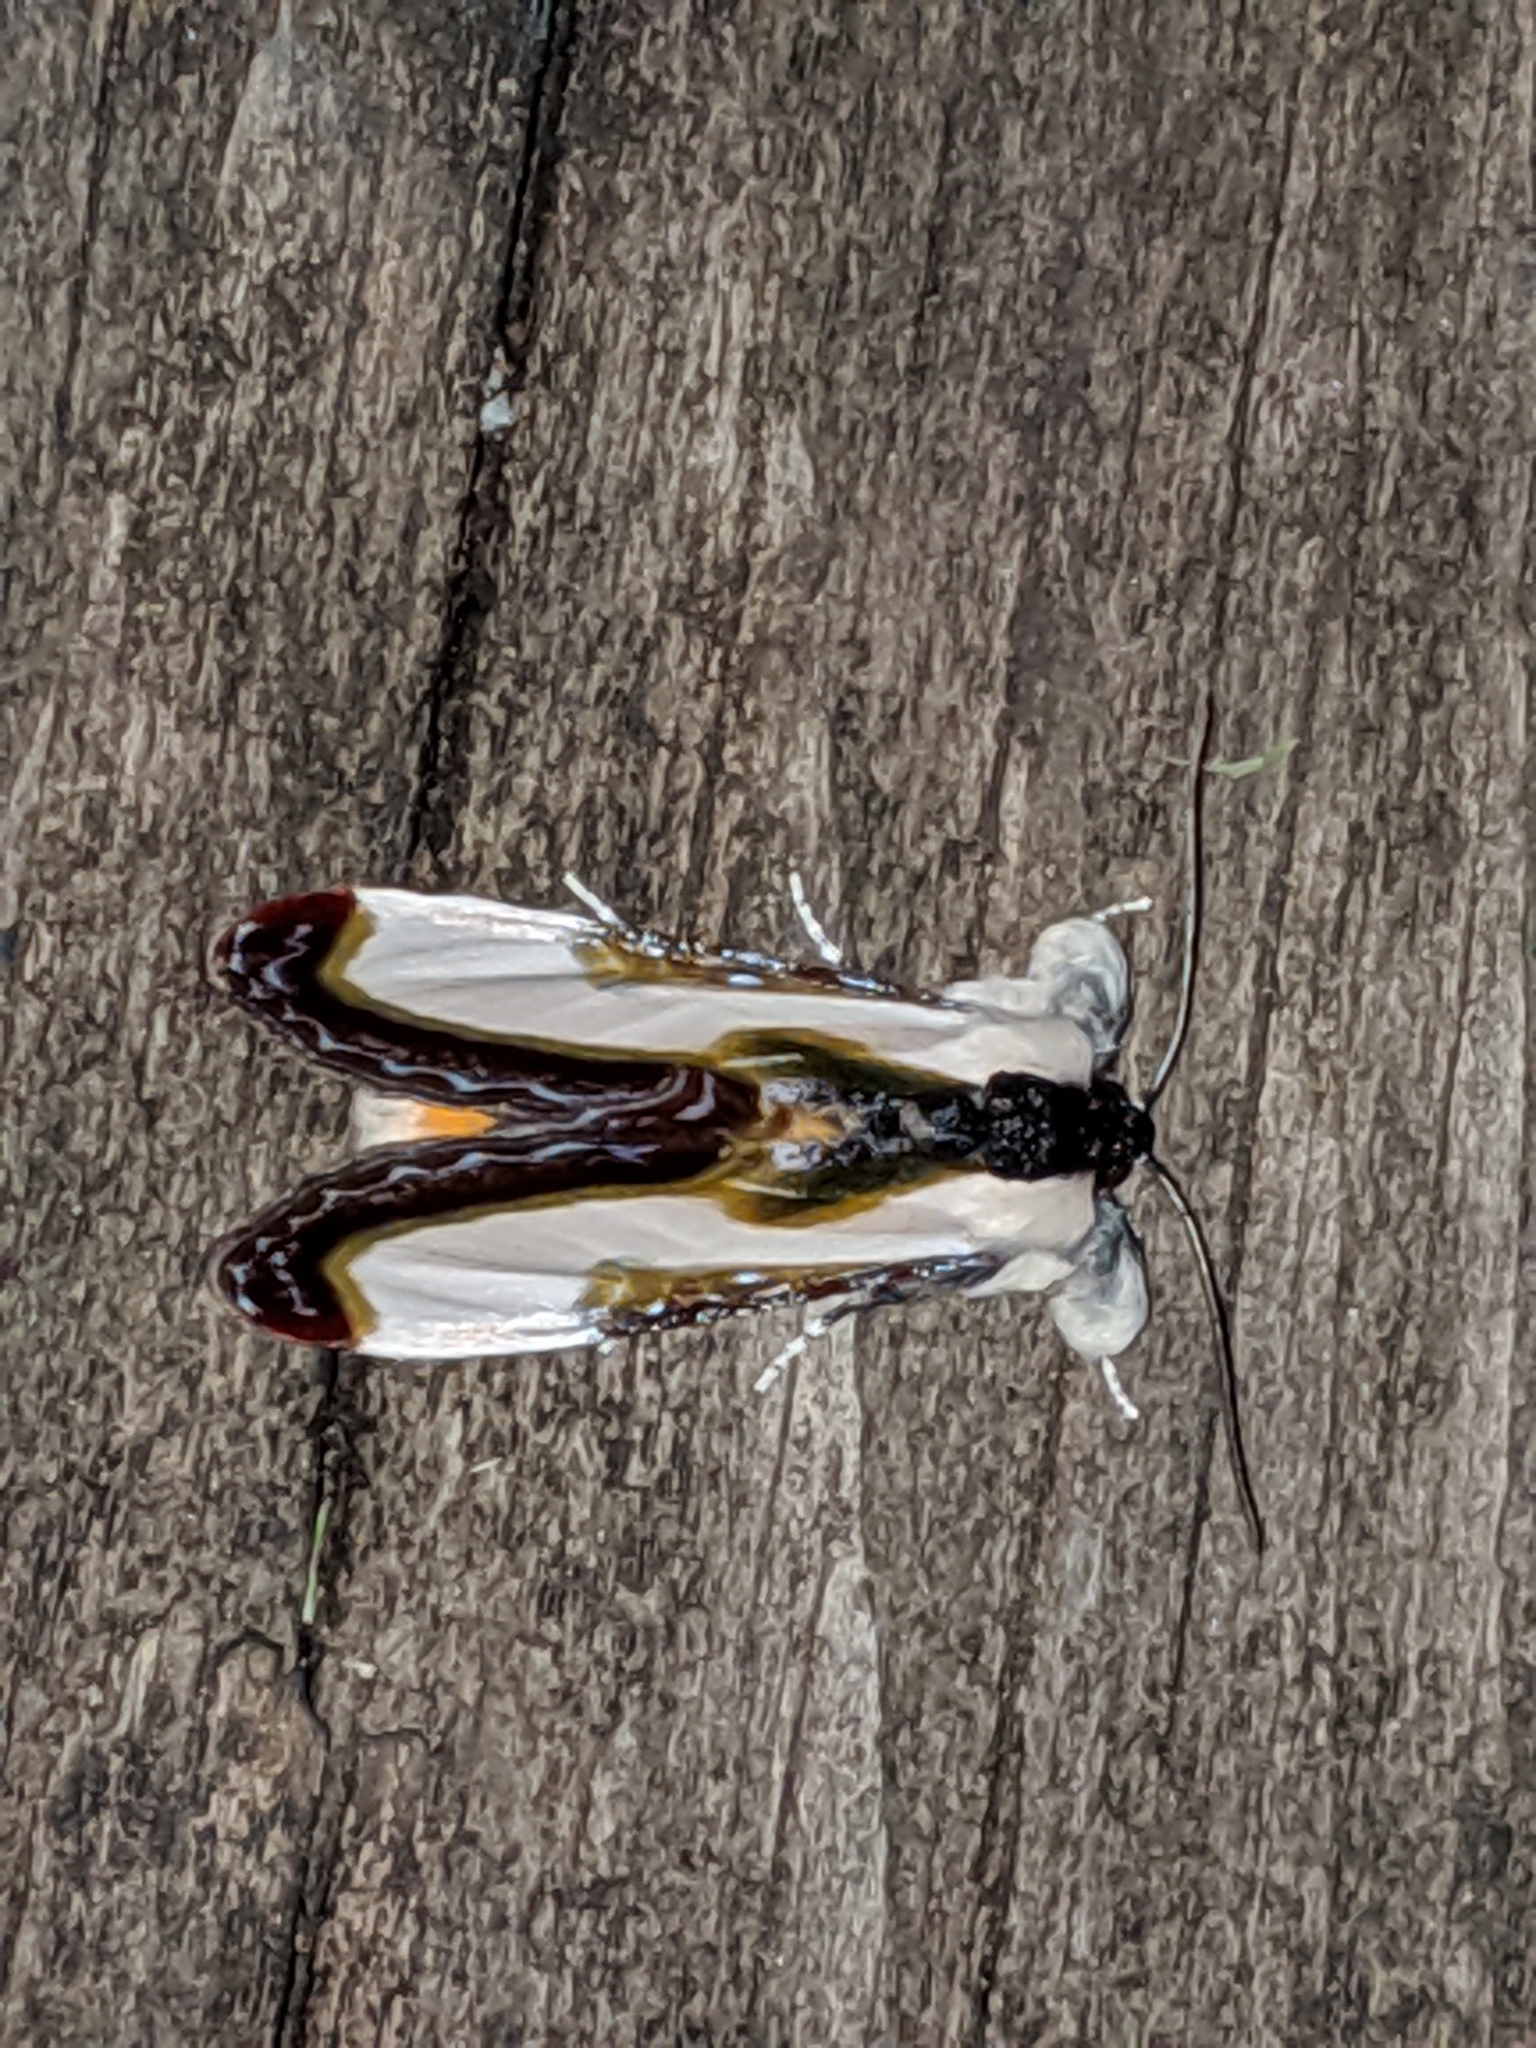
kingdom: Animalia
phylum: Arthropoda
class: Insecta
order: Lepidoptera
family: Noctuidae
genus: Eudryas
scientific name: Eudryas unio
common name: Pearly wood-nymph
